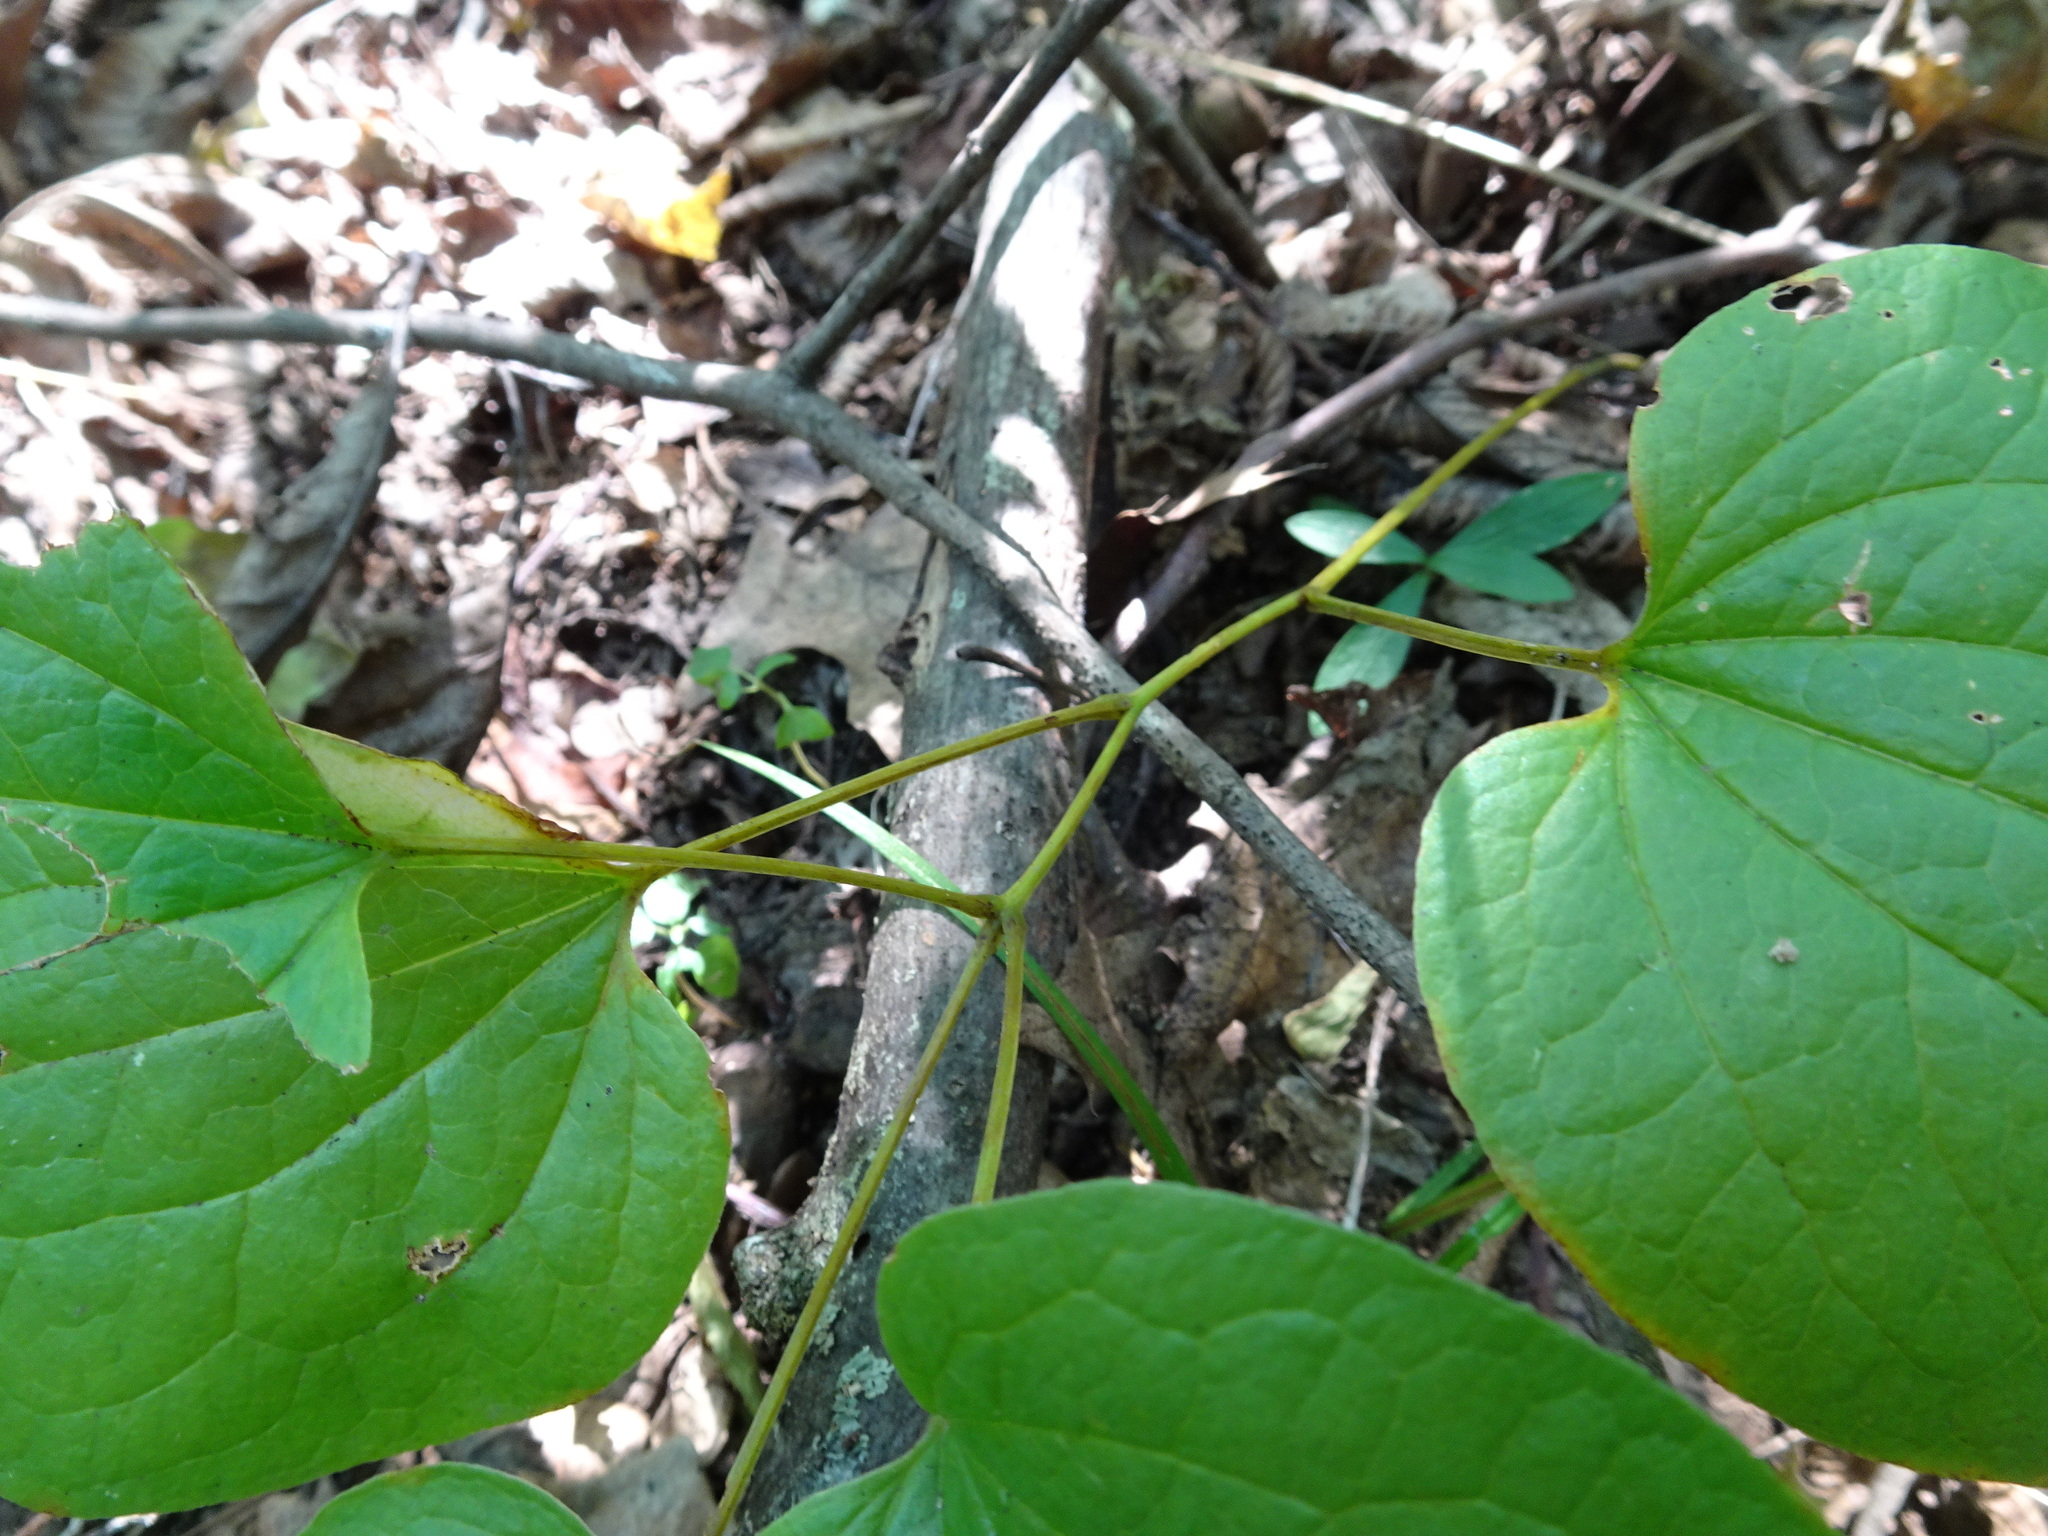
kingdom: Plantae
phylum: Tracheophyta
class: Liliopsida
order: Liliales
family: Smilacaceae
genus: Smilax
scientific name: Smilax lasioneura
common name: Blue ridge carrionflower
